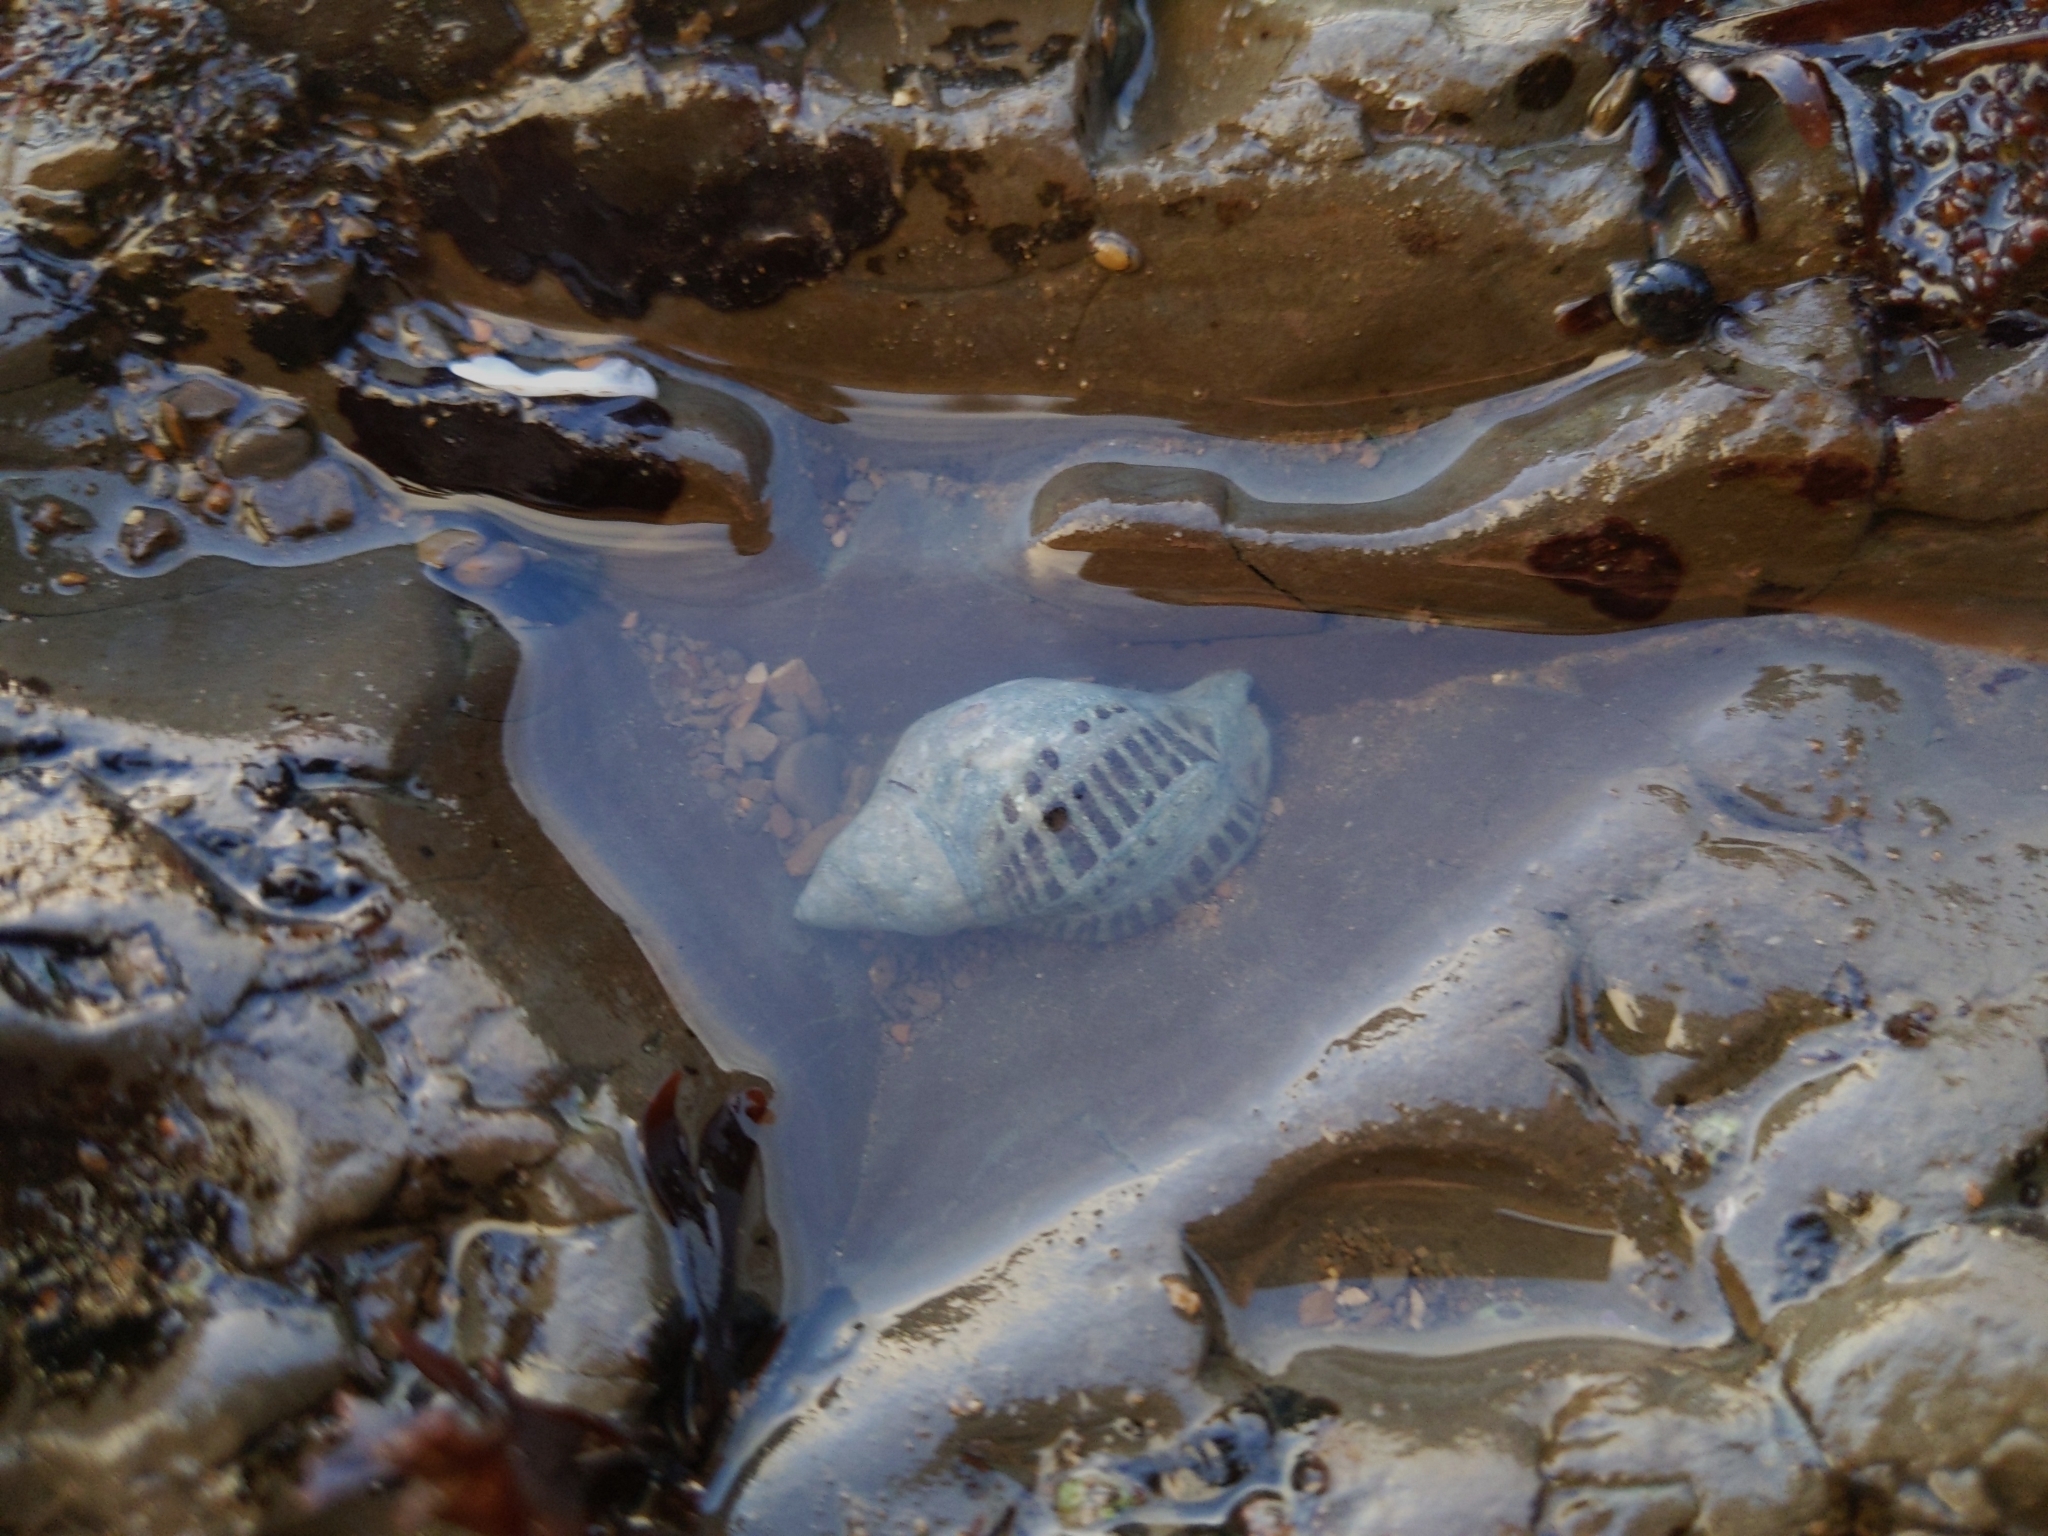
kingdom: Animalia
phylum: Mollusca
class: Gastropoda
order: Neogastropoda
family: Muricidae
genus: Acanthinucella
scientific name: Acanthinucella spirata
